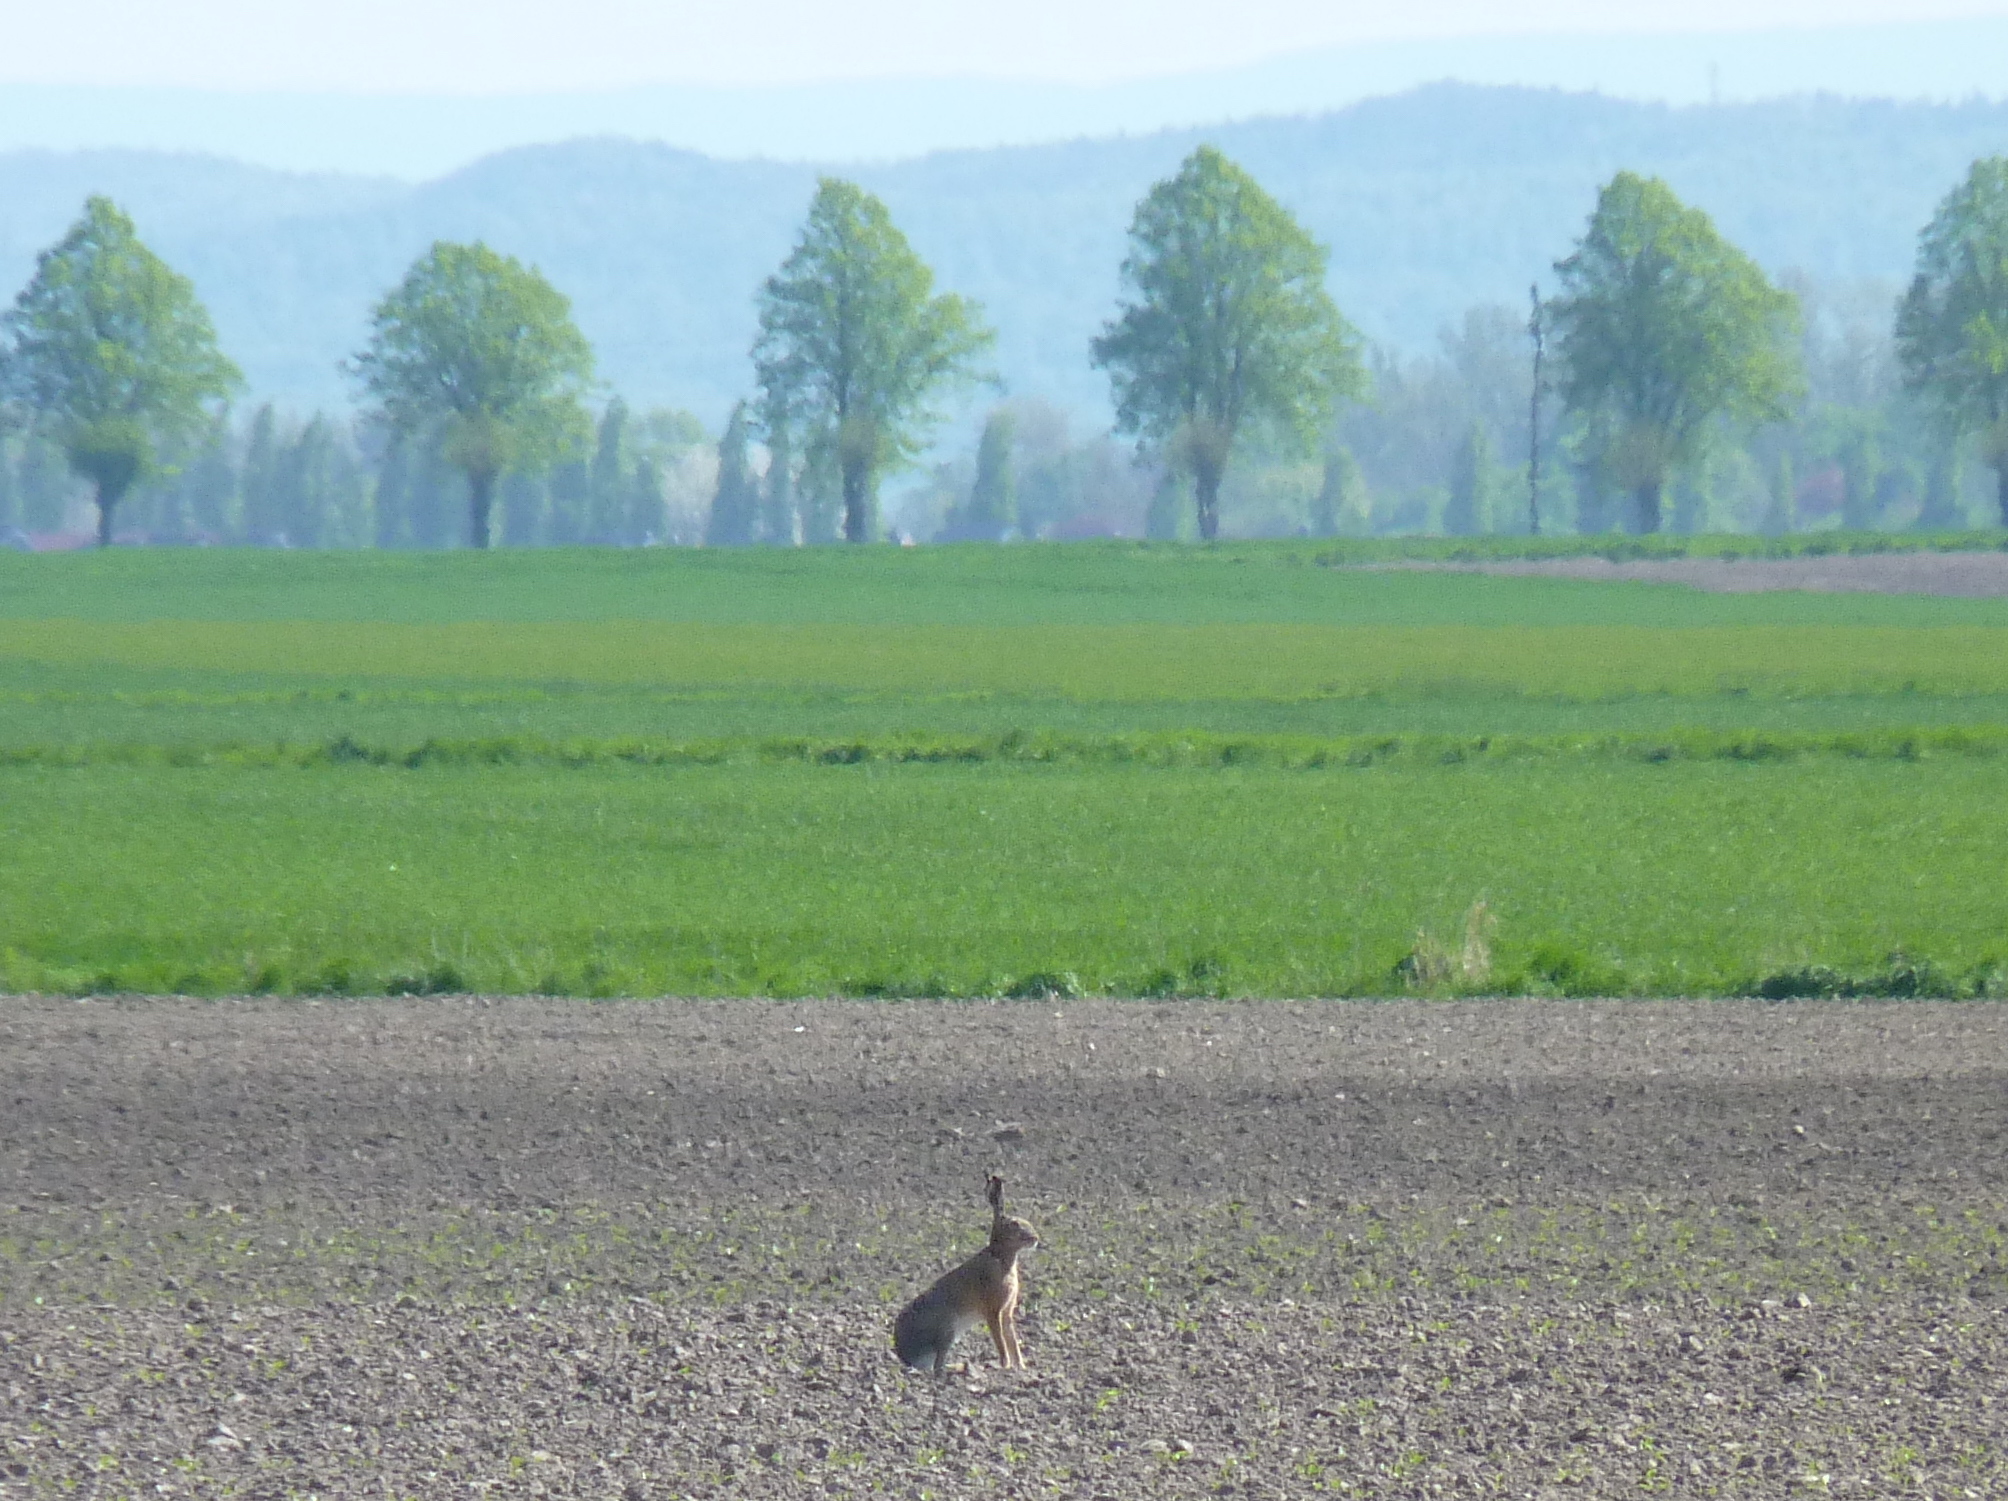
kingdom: Animalia
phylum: Chordata
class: Mammalia
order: Lagomorpha
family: Leporidae
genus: Lepus
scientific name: Lepus europaeus
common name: European hare
